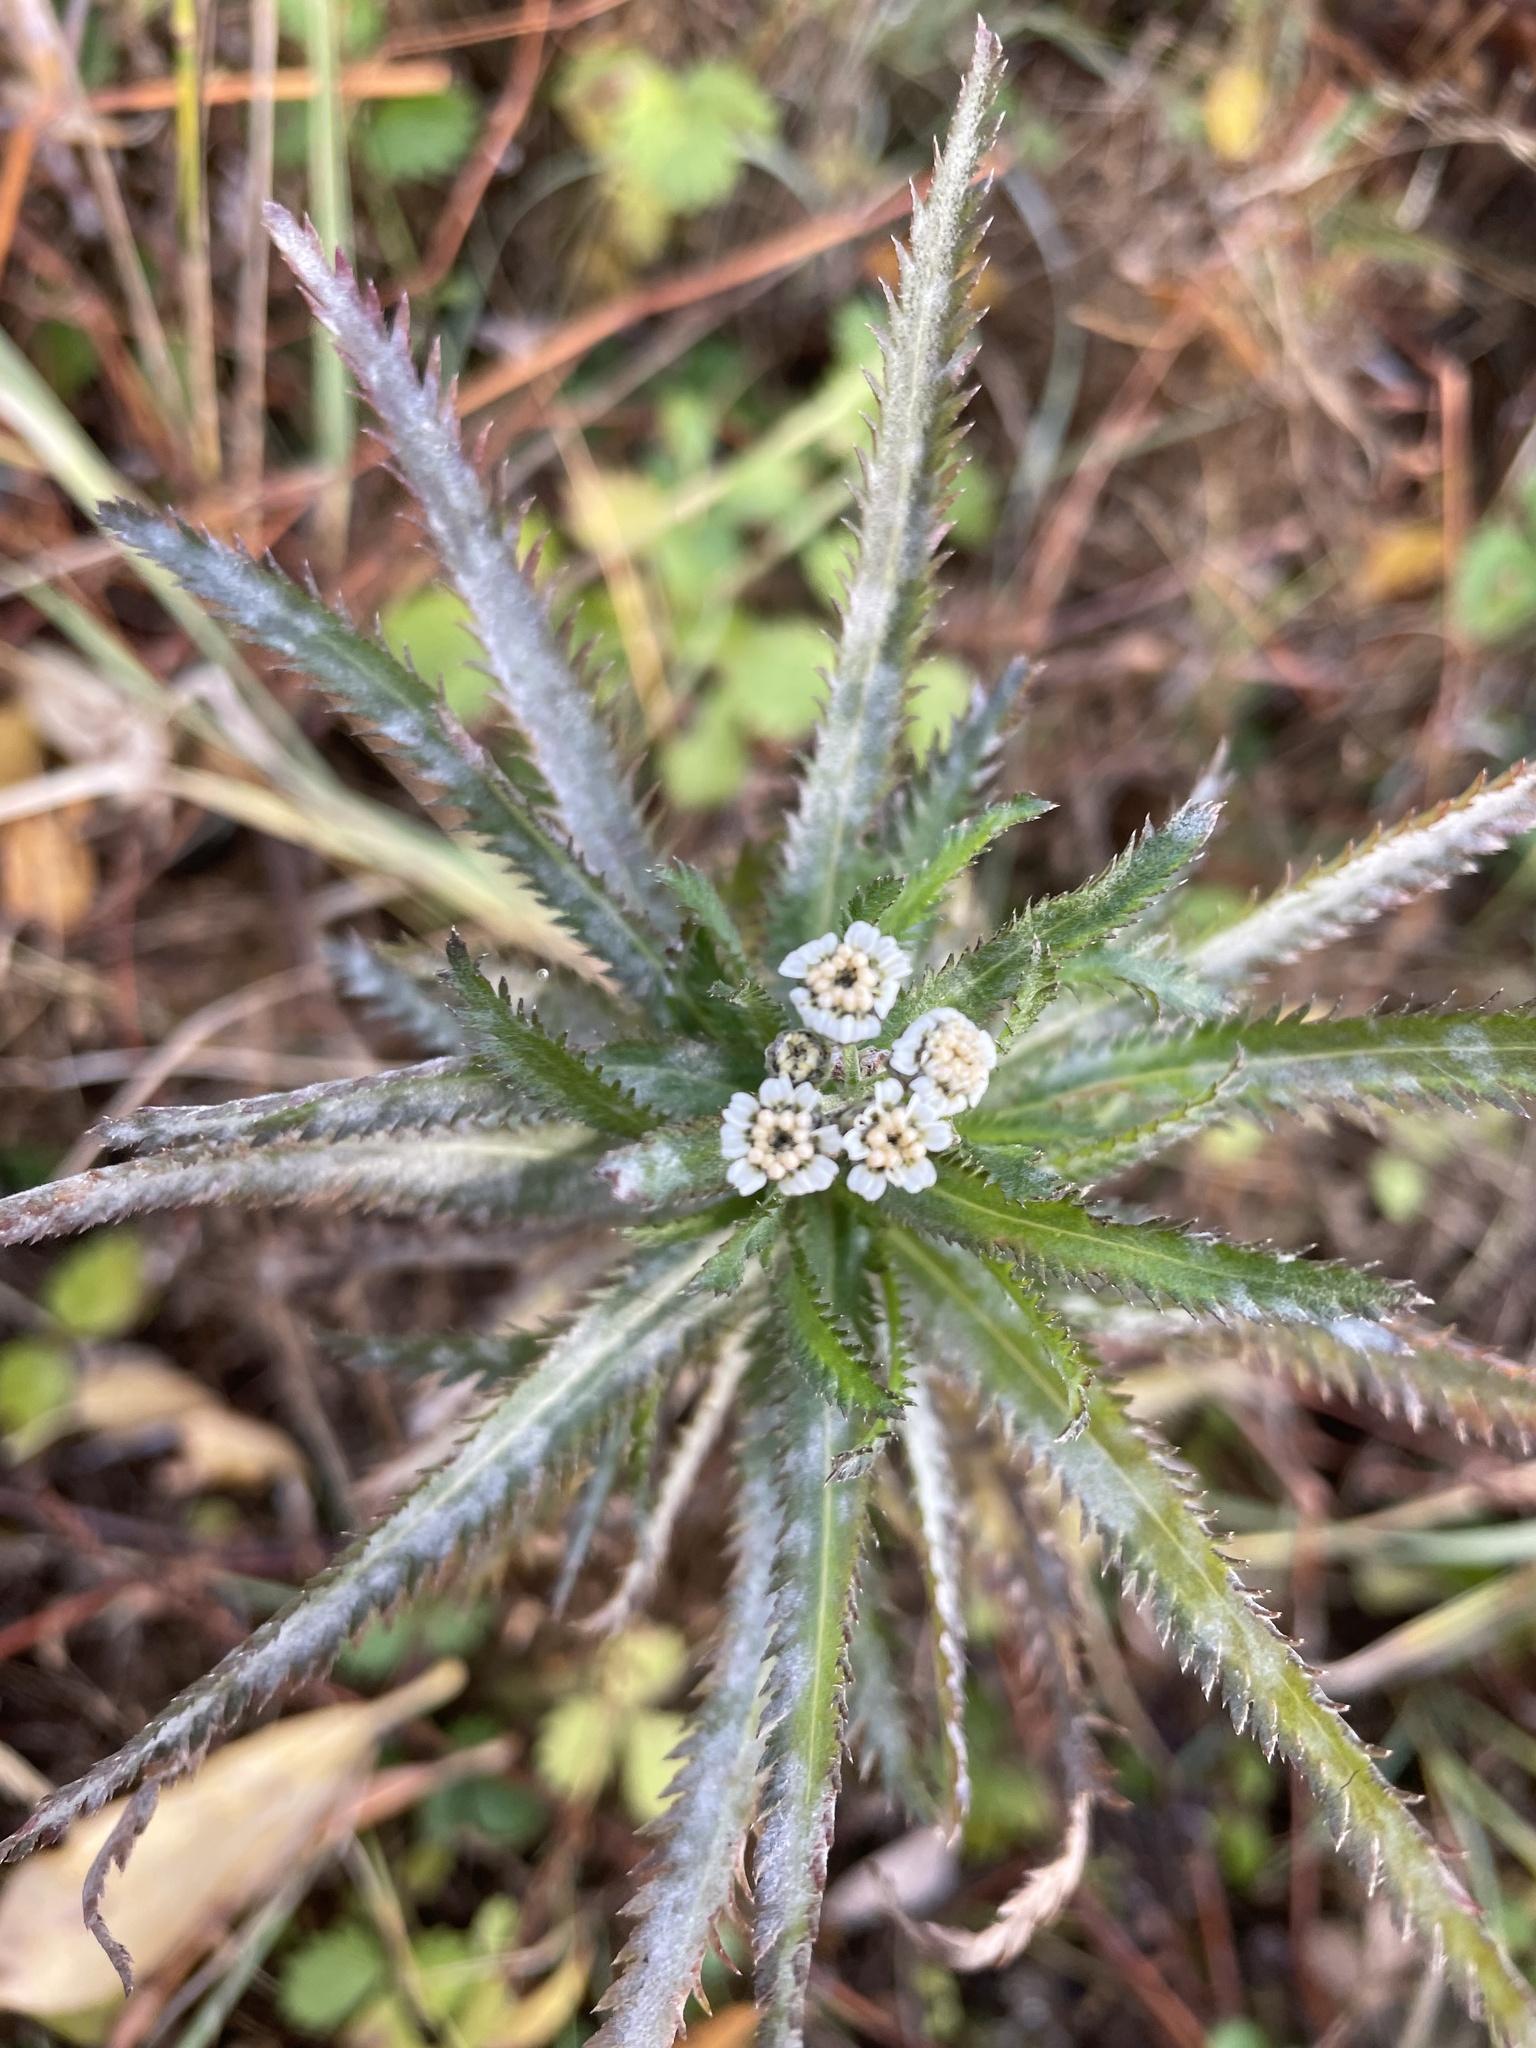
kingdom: Plantae
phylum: Tracheophyta
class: Magnoliopsida
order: Asterales
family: Asteraceae
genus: Achillea
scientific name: Achillea alpina
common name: Siberian yarrow
